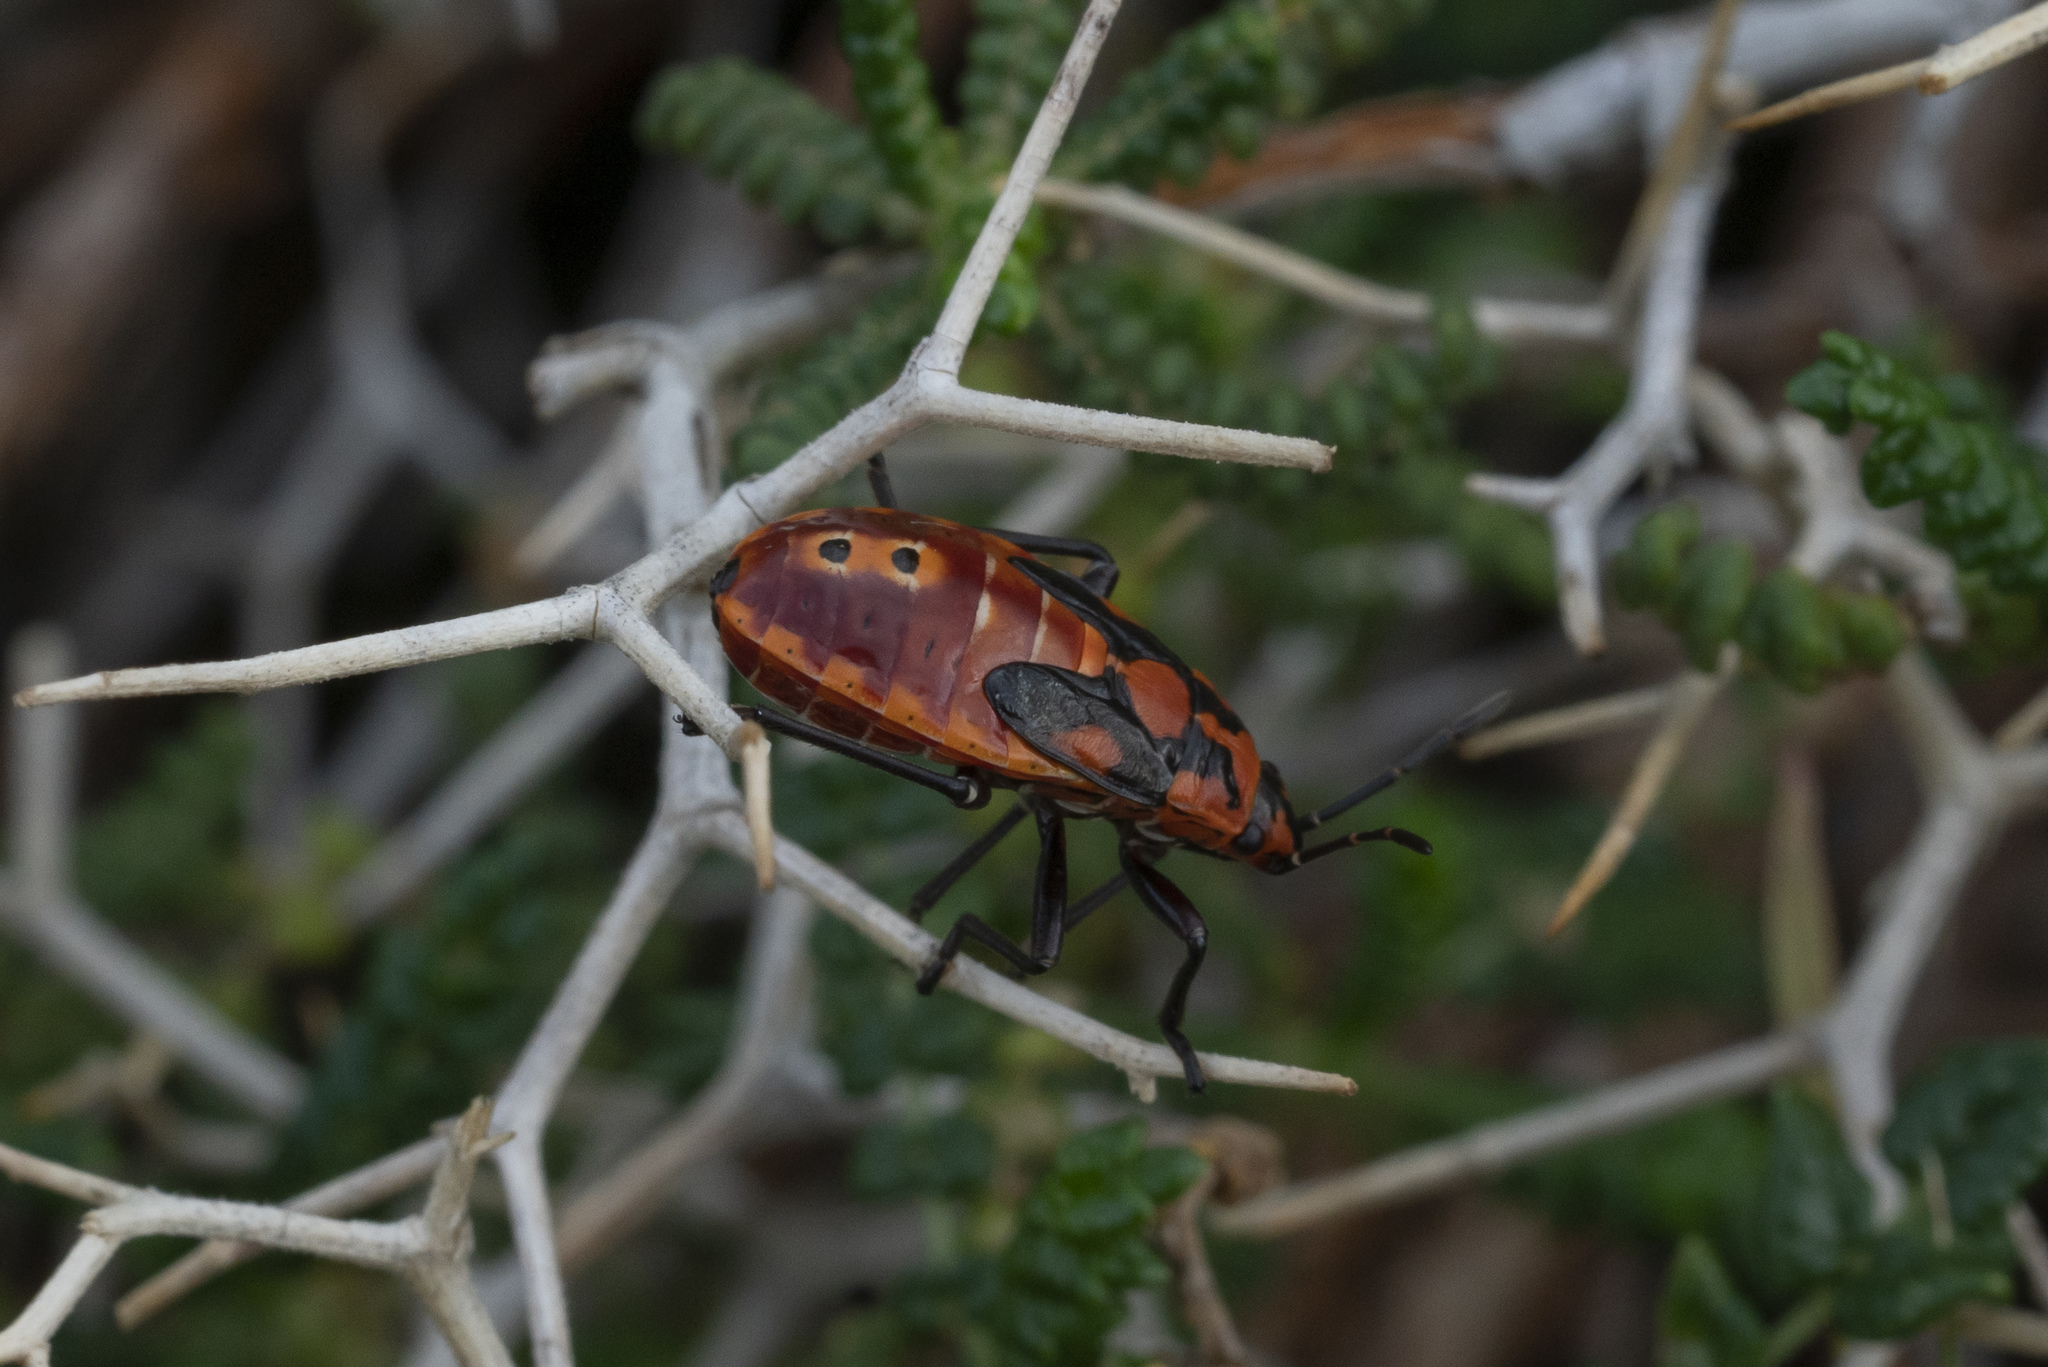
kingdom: Animalia
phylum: Arthropoda
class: Insecta
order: Hemiptera
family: Lygaeidae
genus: Spilostethus
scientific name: Spilostethus pandurus
